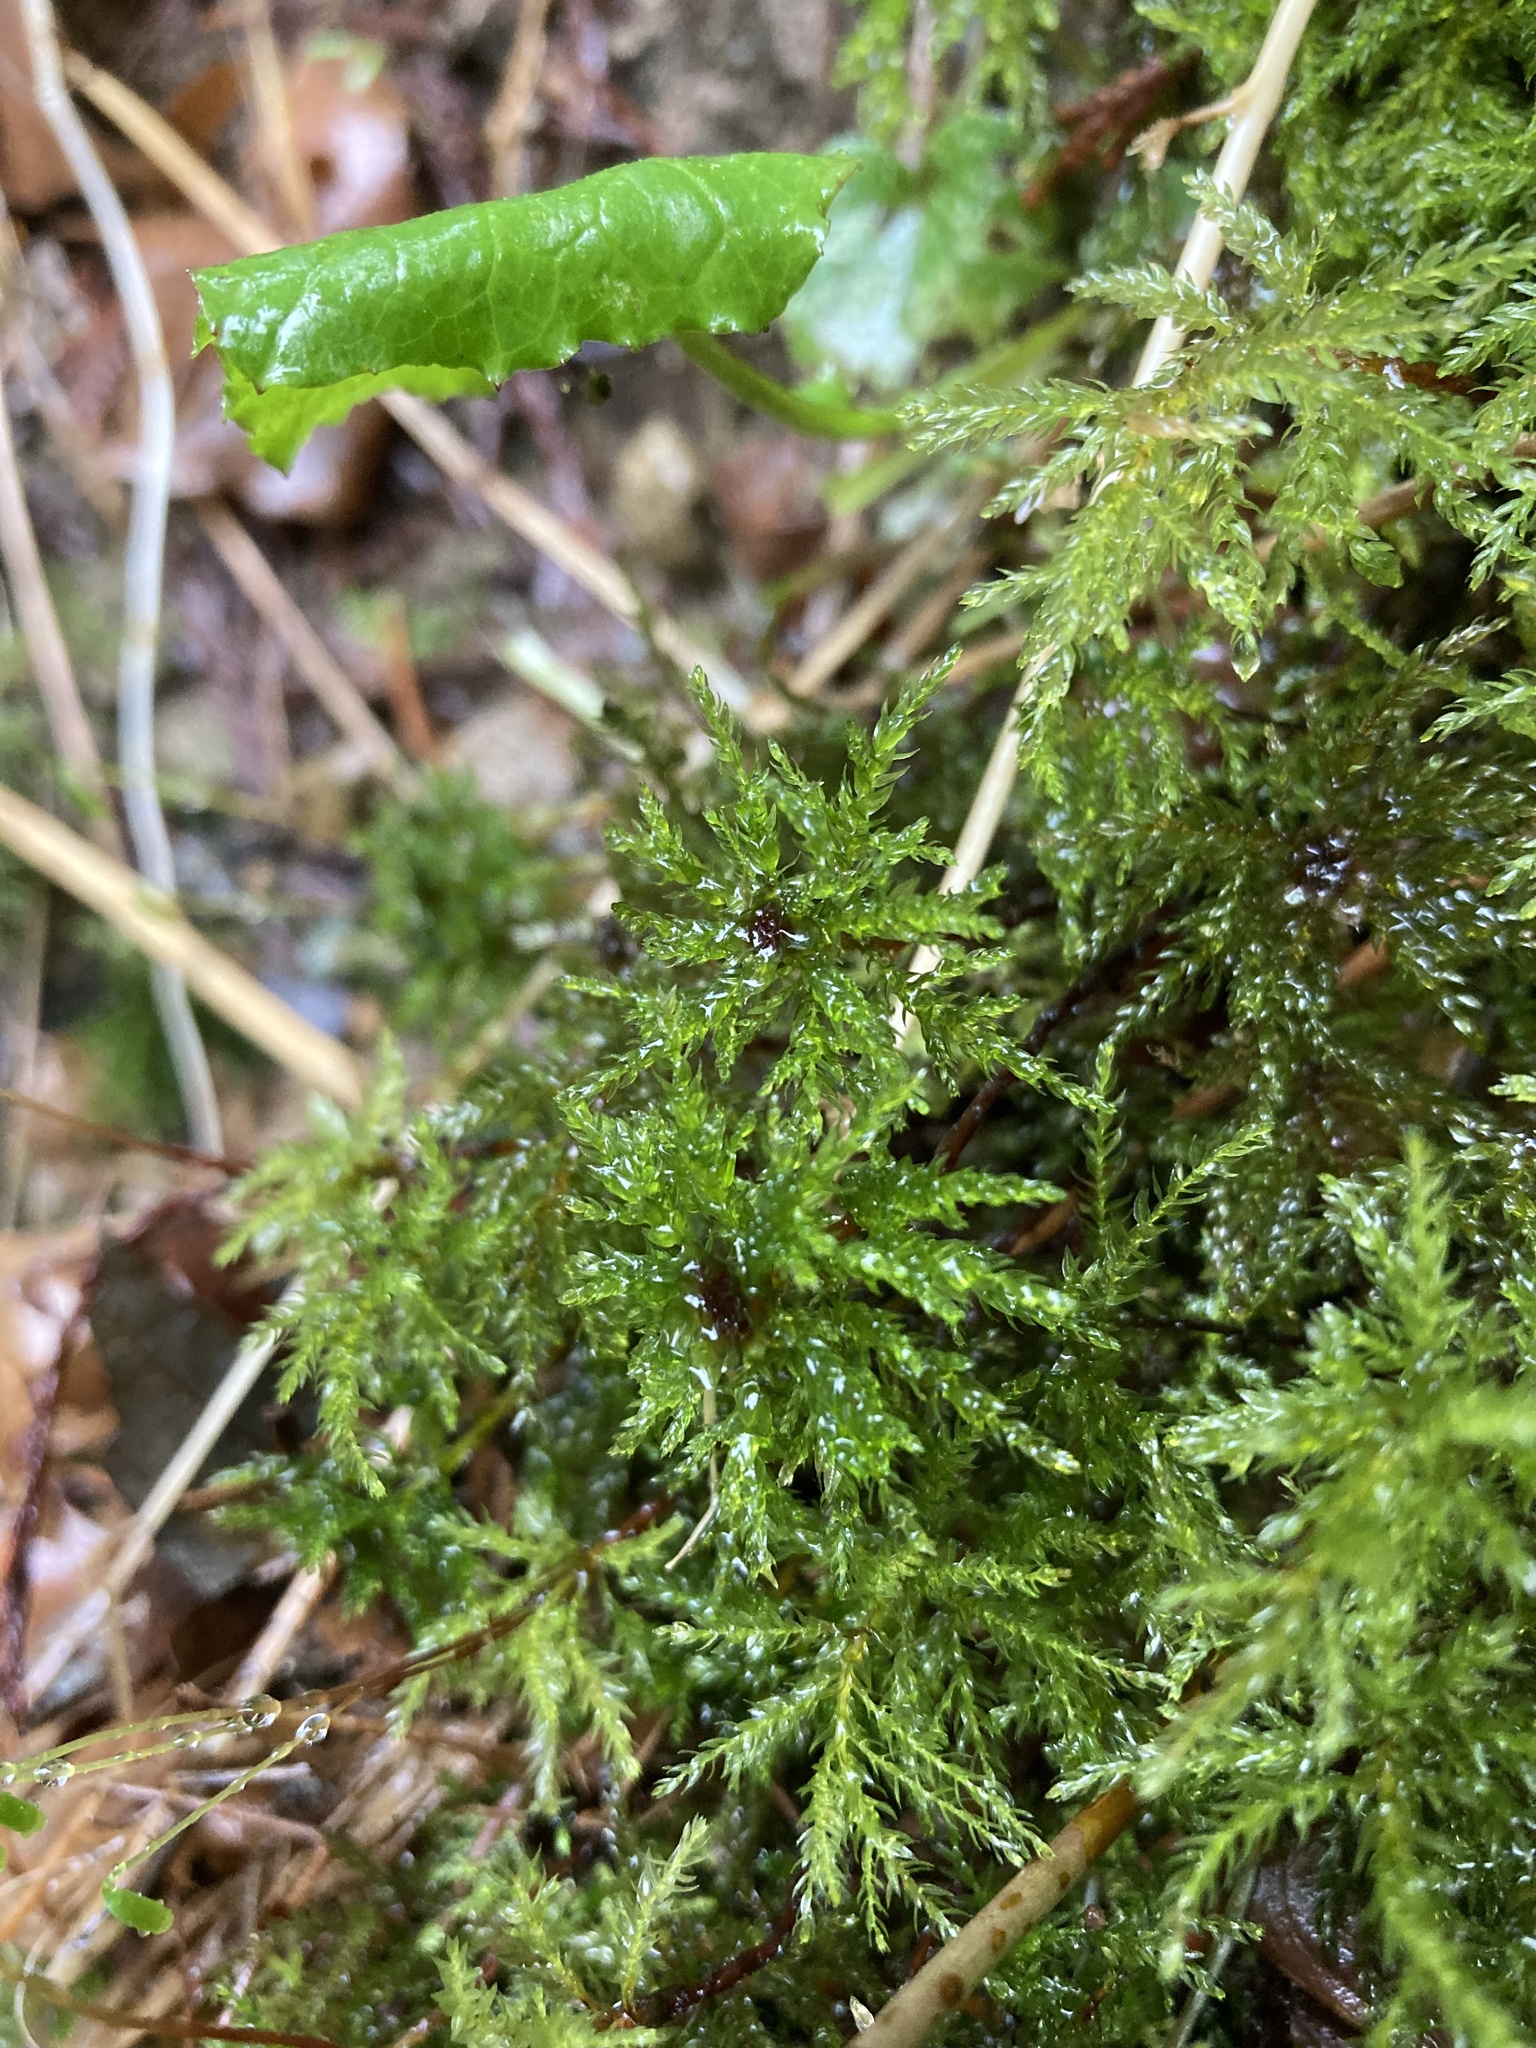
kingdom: Plantae
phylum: Bryophyta
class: Bryopsida
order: Bryales
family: Mniaceae
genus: Leucolepis
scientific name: Leucolepis acanthoneura
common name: Leucolepis umbrella moss
